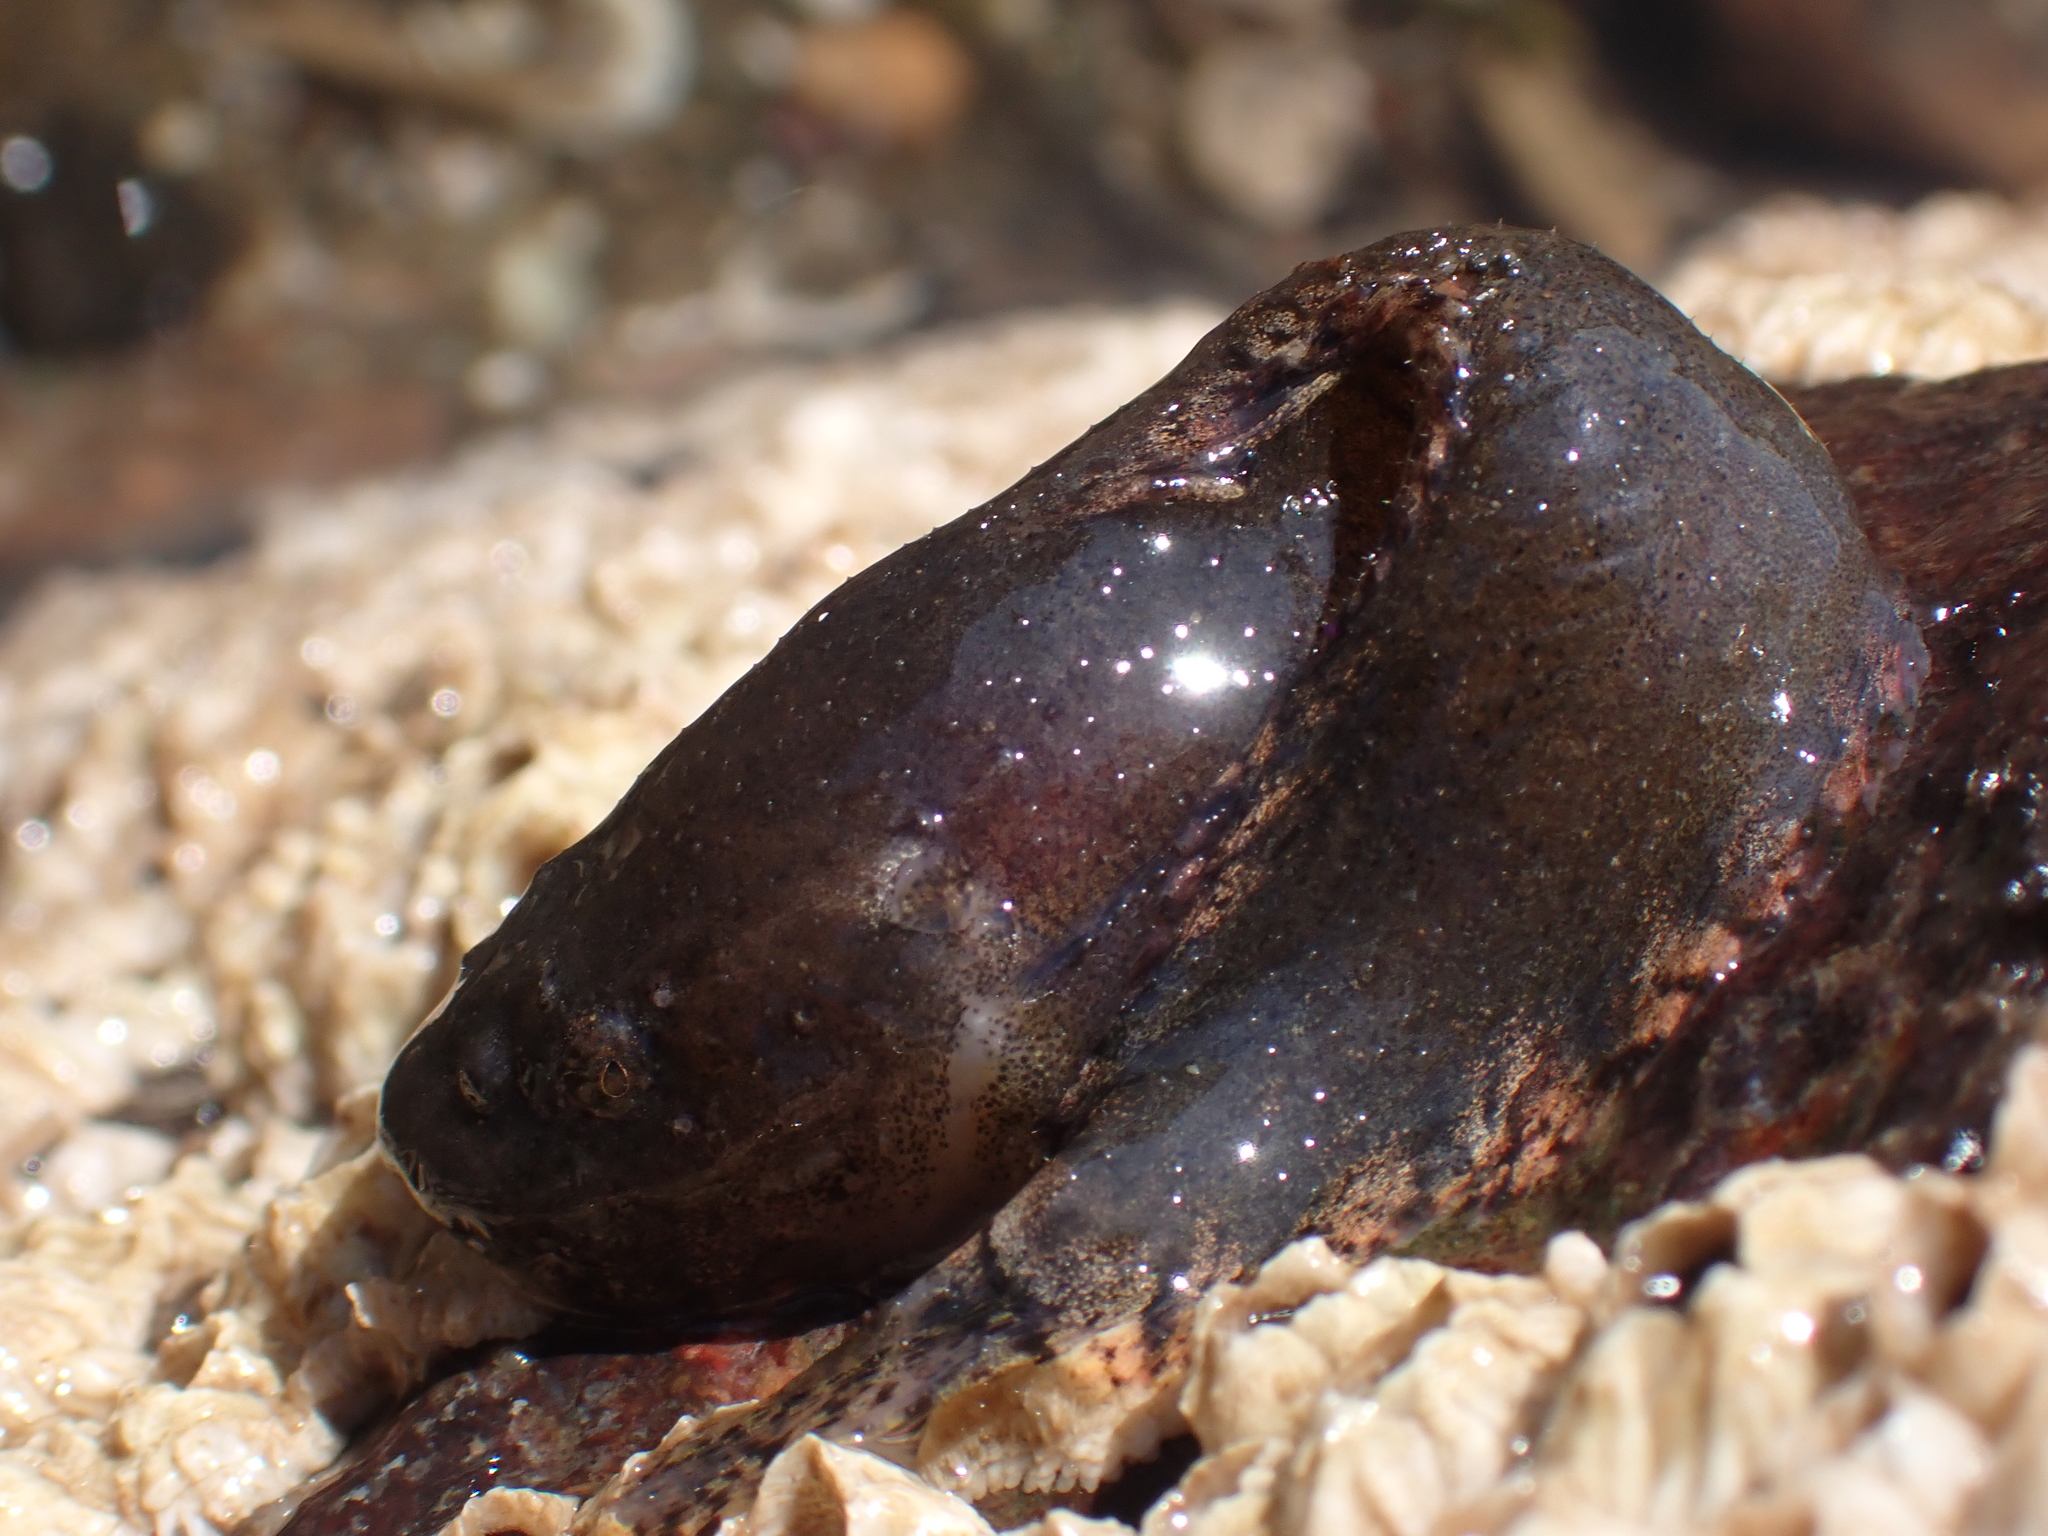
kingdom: Animalia
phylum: Chordata
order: Scorpaeniformes
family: Liparidae
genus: Liparis
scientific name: Liparis atlanticus
